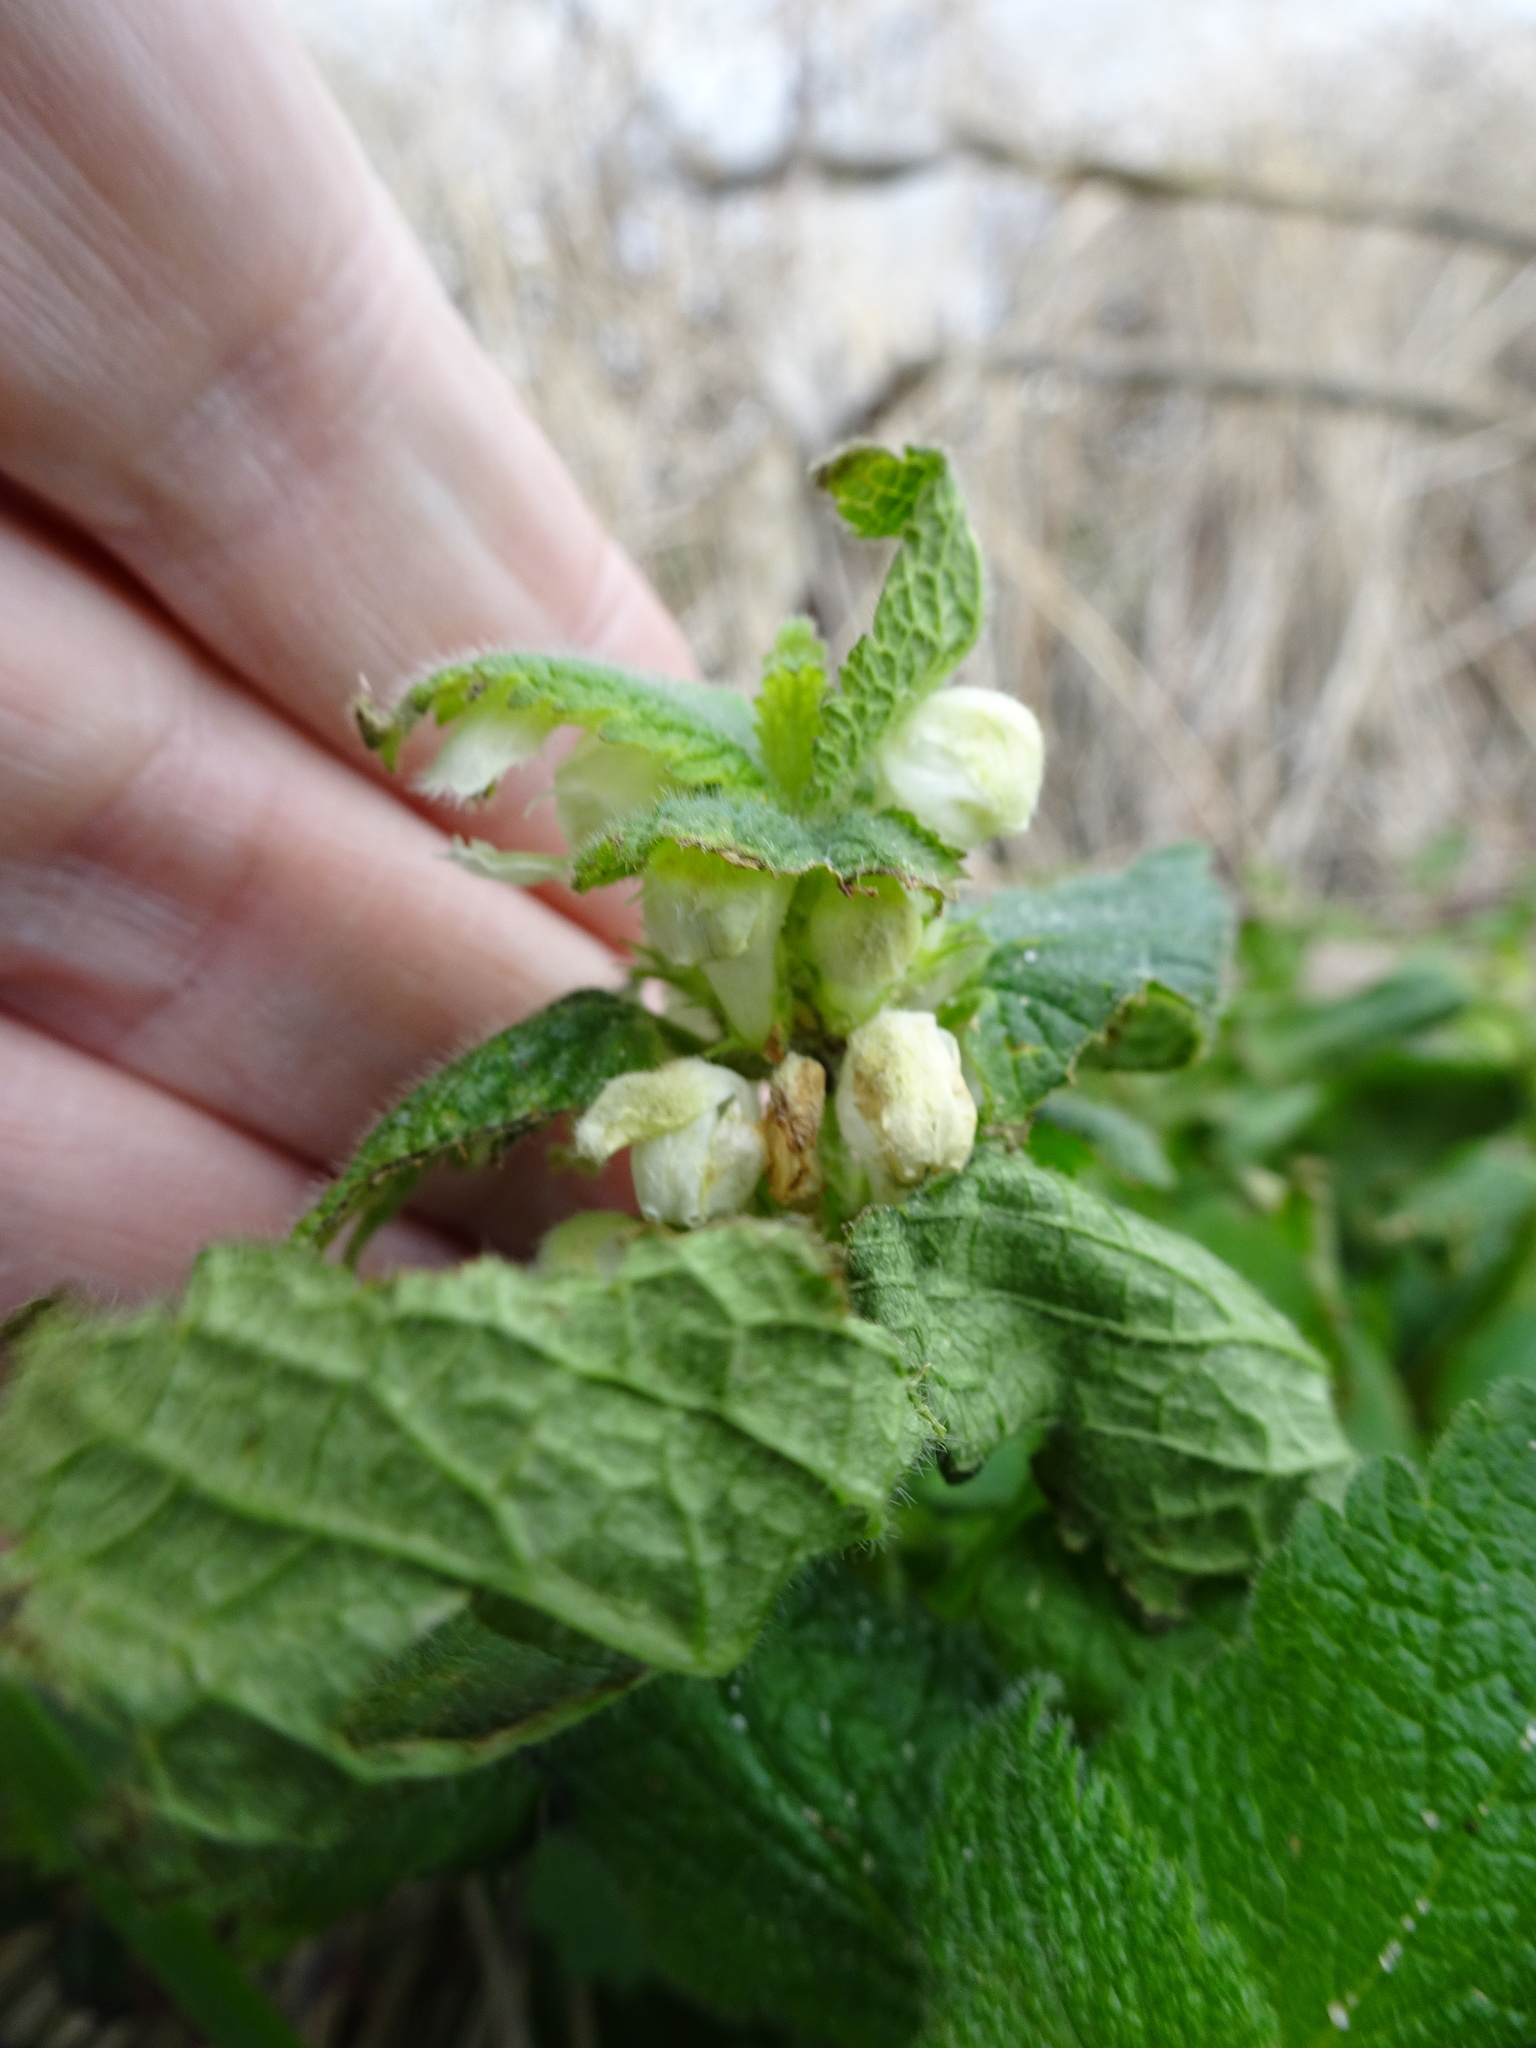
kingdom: Plantae
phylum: Tracheophyta
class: Magnoliopsida
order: Lamiales
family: Lamiaceae
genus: Lamium
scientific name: Lamium album
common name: White dead-nettle
